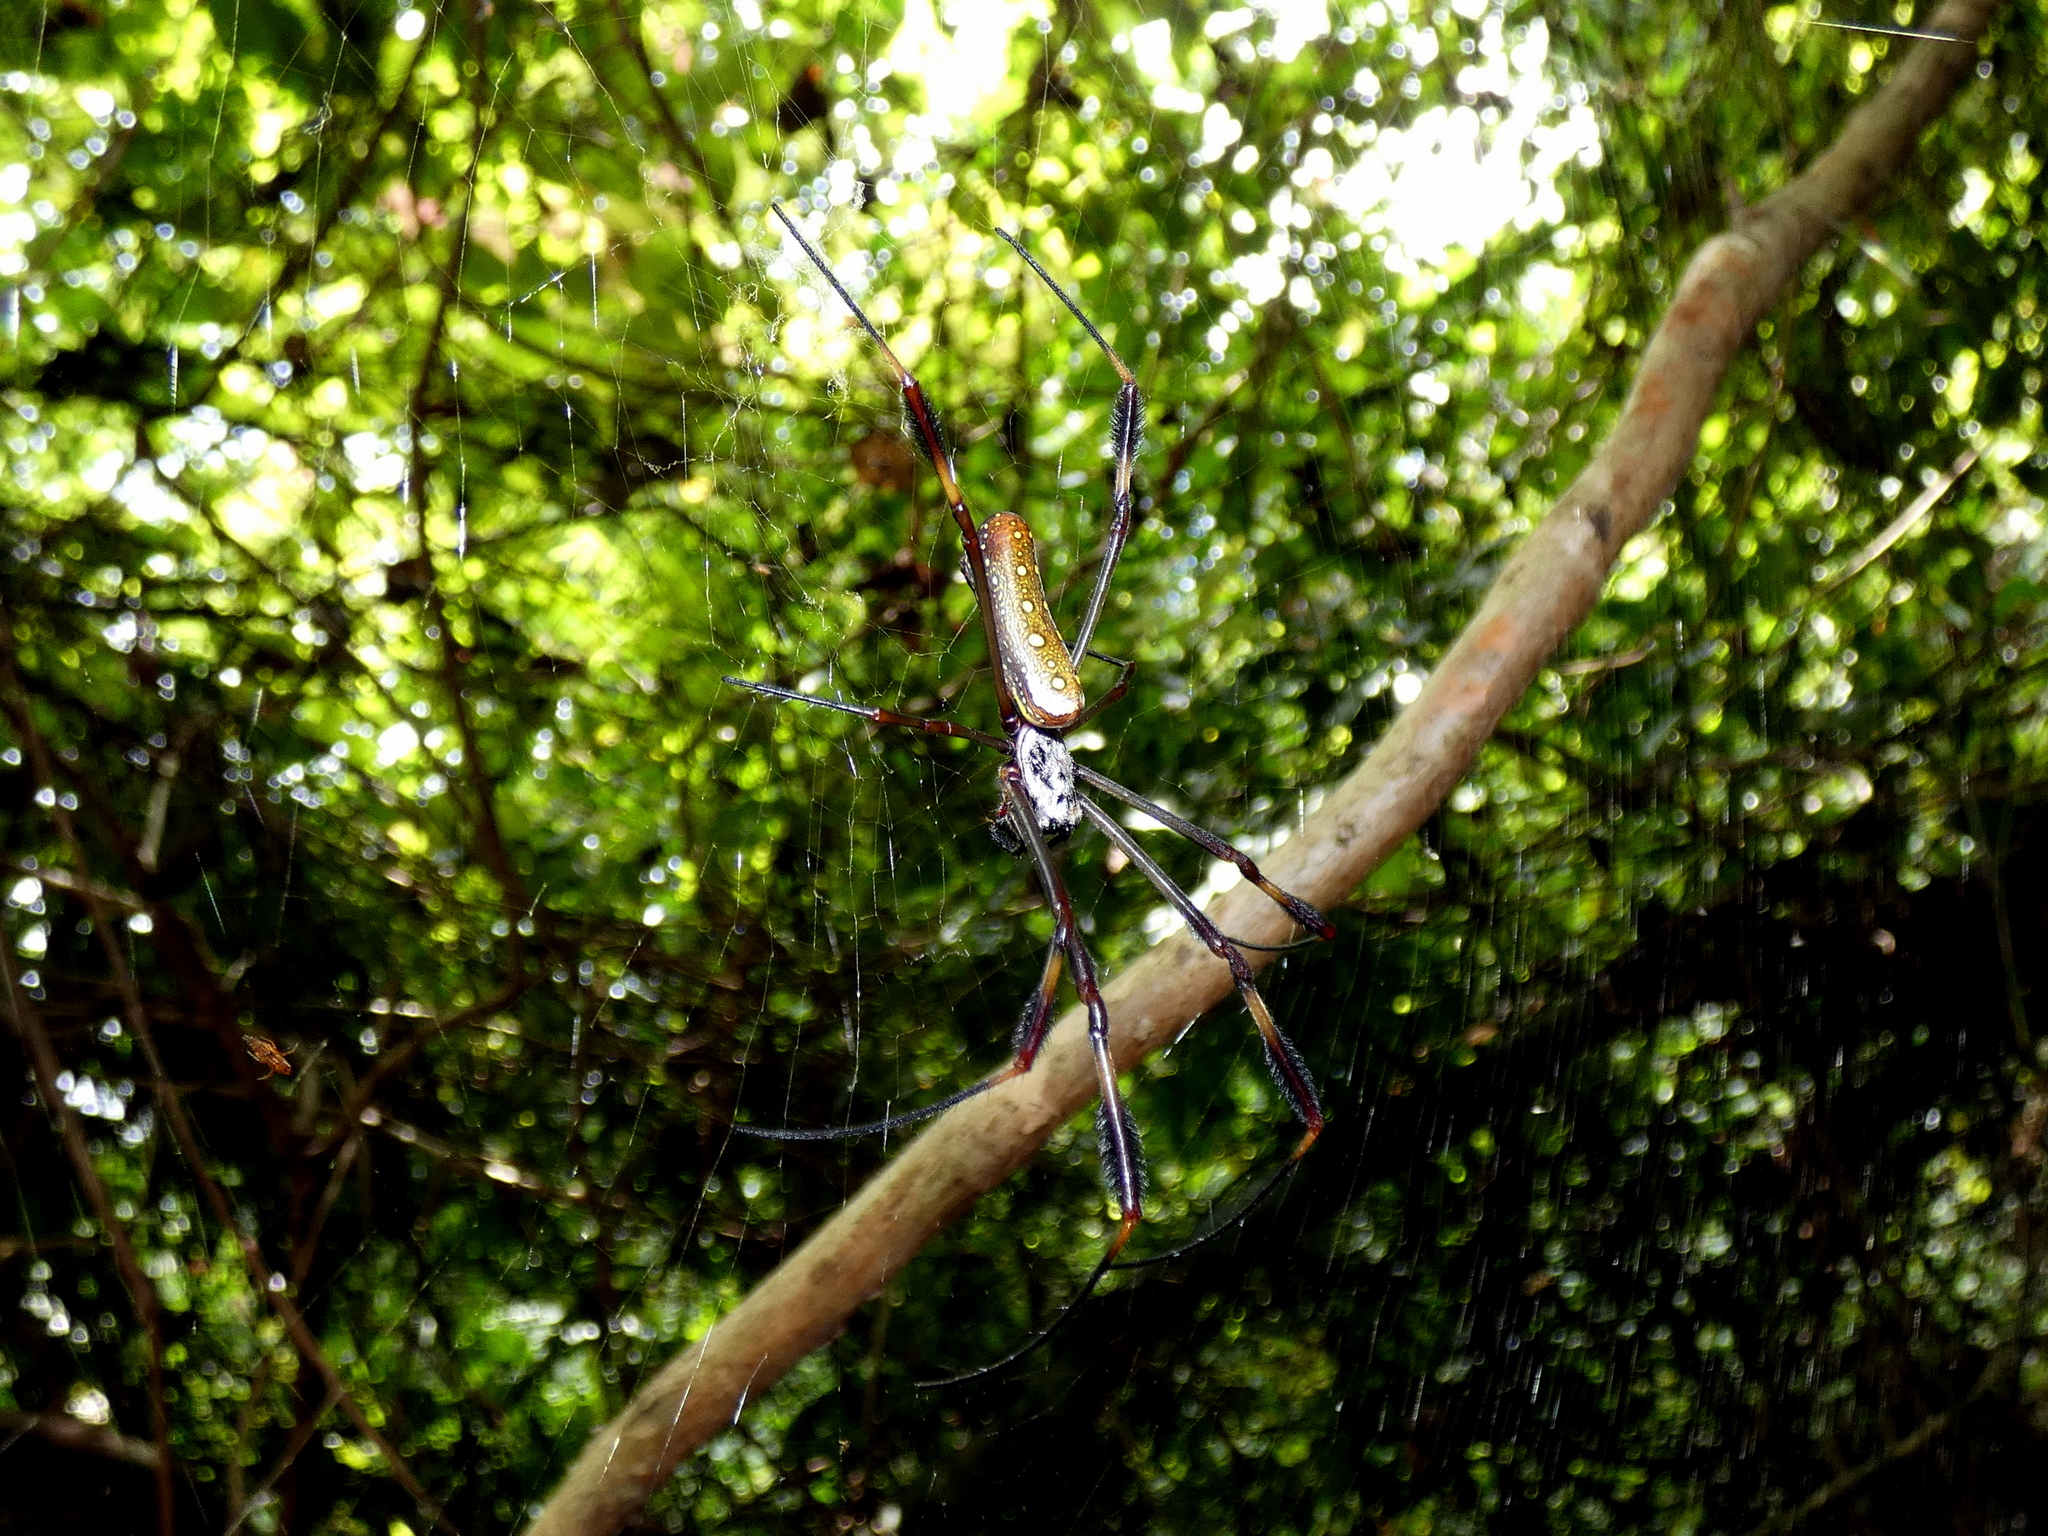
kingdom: Animalia
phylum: Arthropoda
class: Arachnida
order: Araneae
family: Araneidae
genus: Trichonephila
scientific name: Trichonephila clavipes
